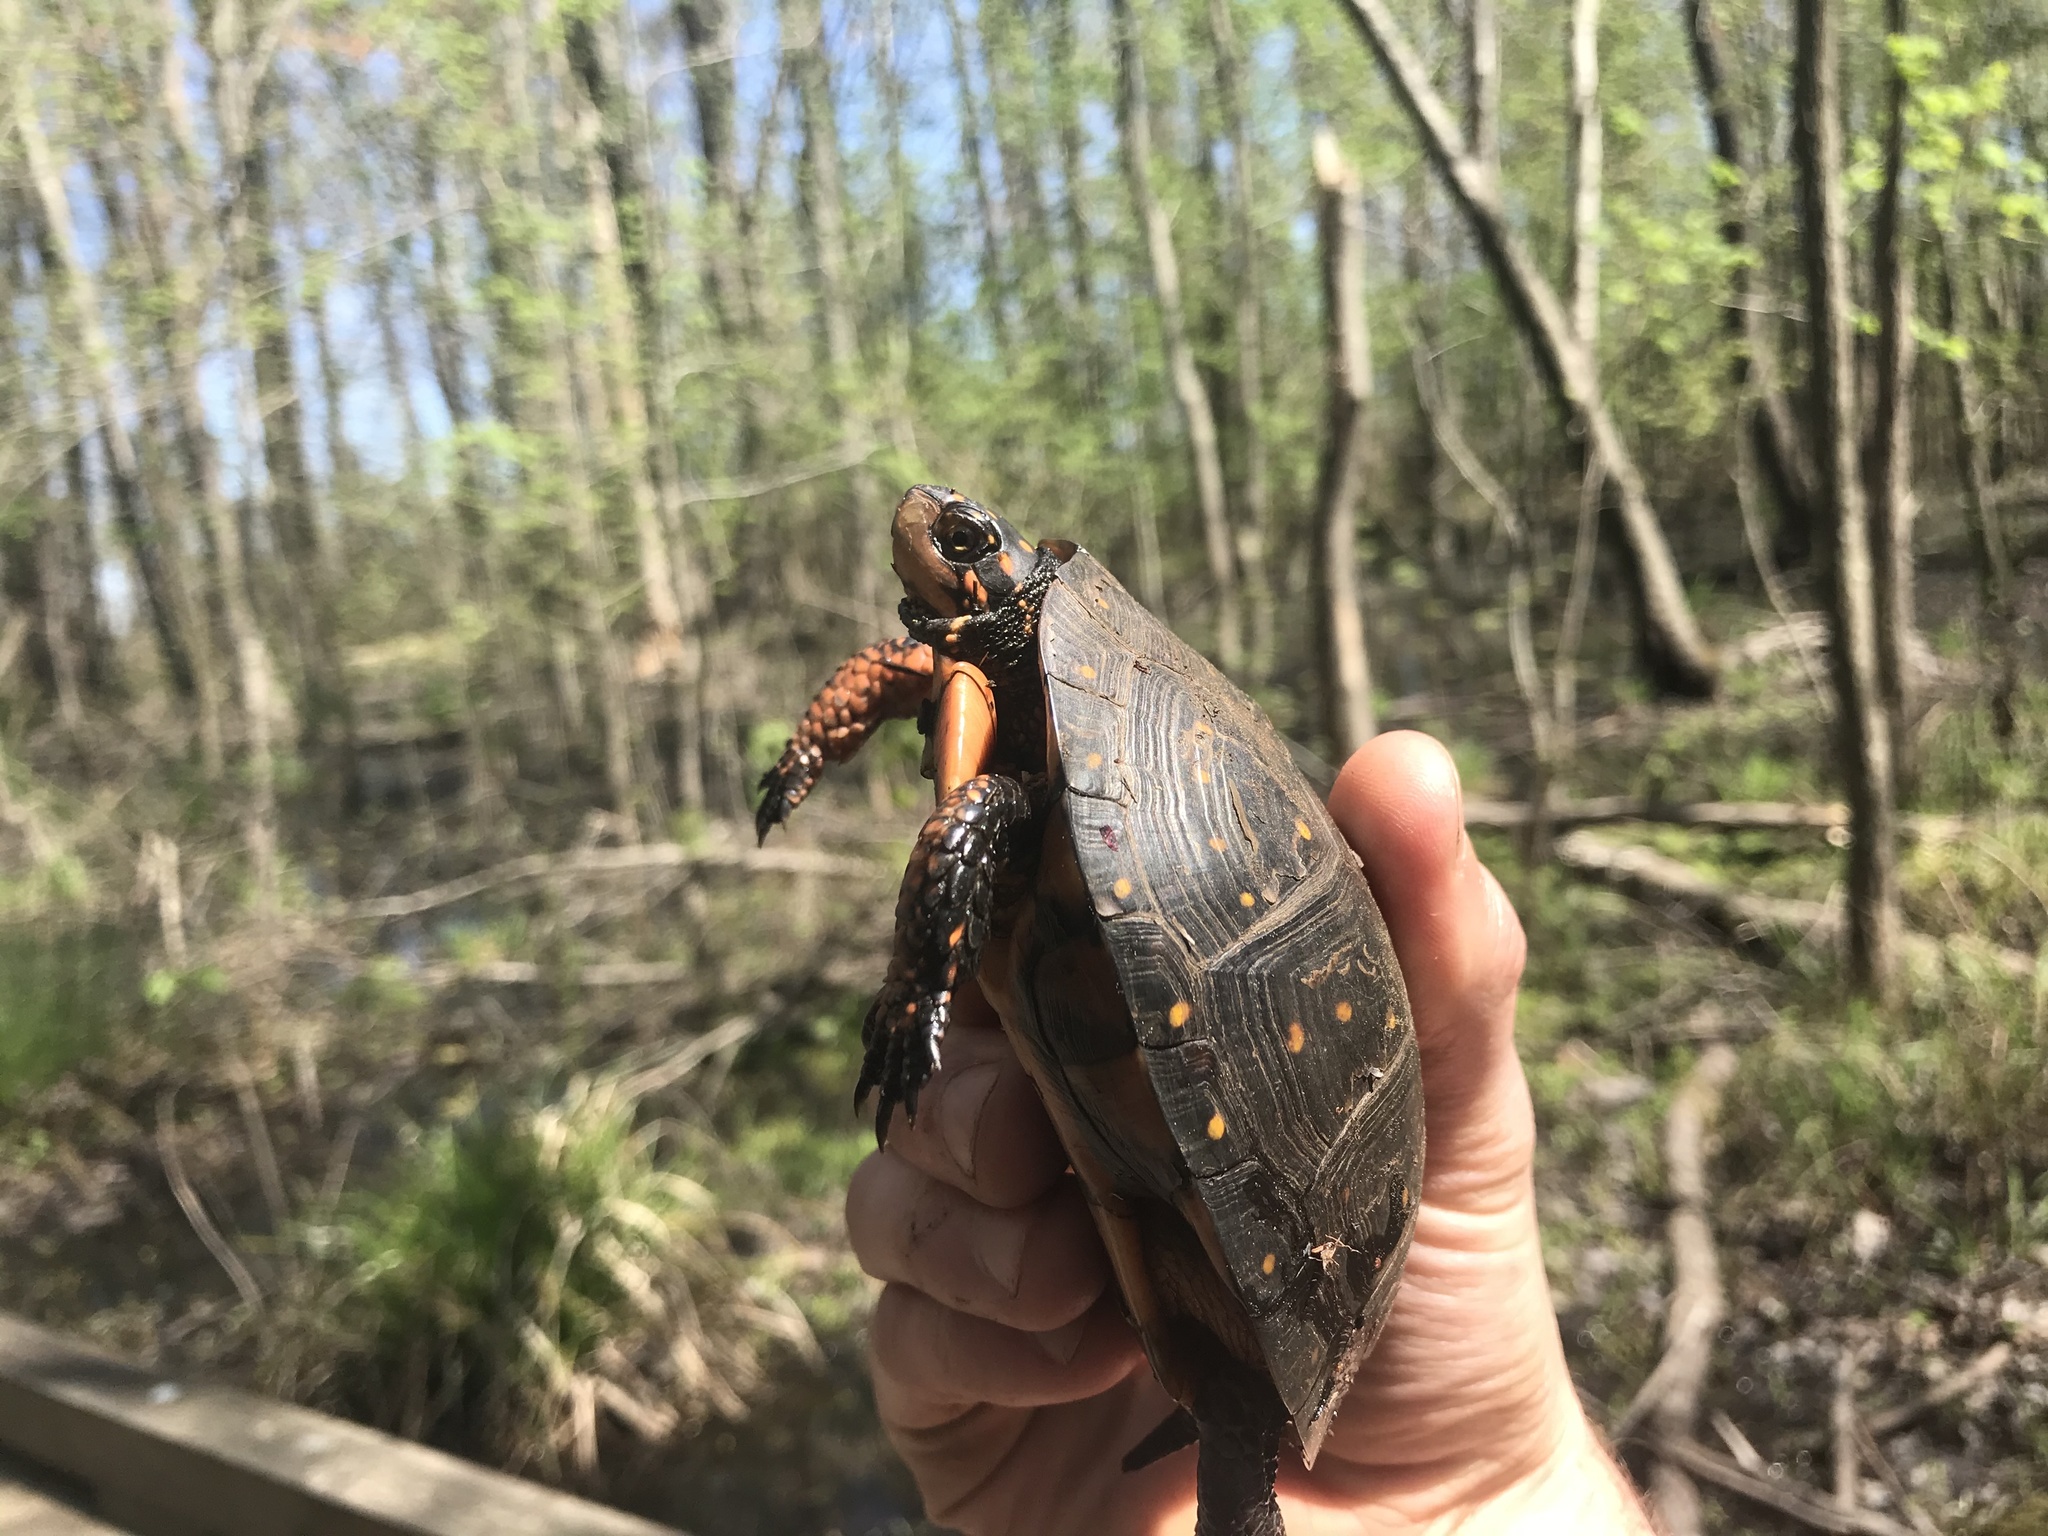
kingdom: Animalia
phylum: Chordata
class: Testudines
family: Emydidae
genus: Clemmys
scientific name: Clemmys guttata
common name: Spotted turtle
